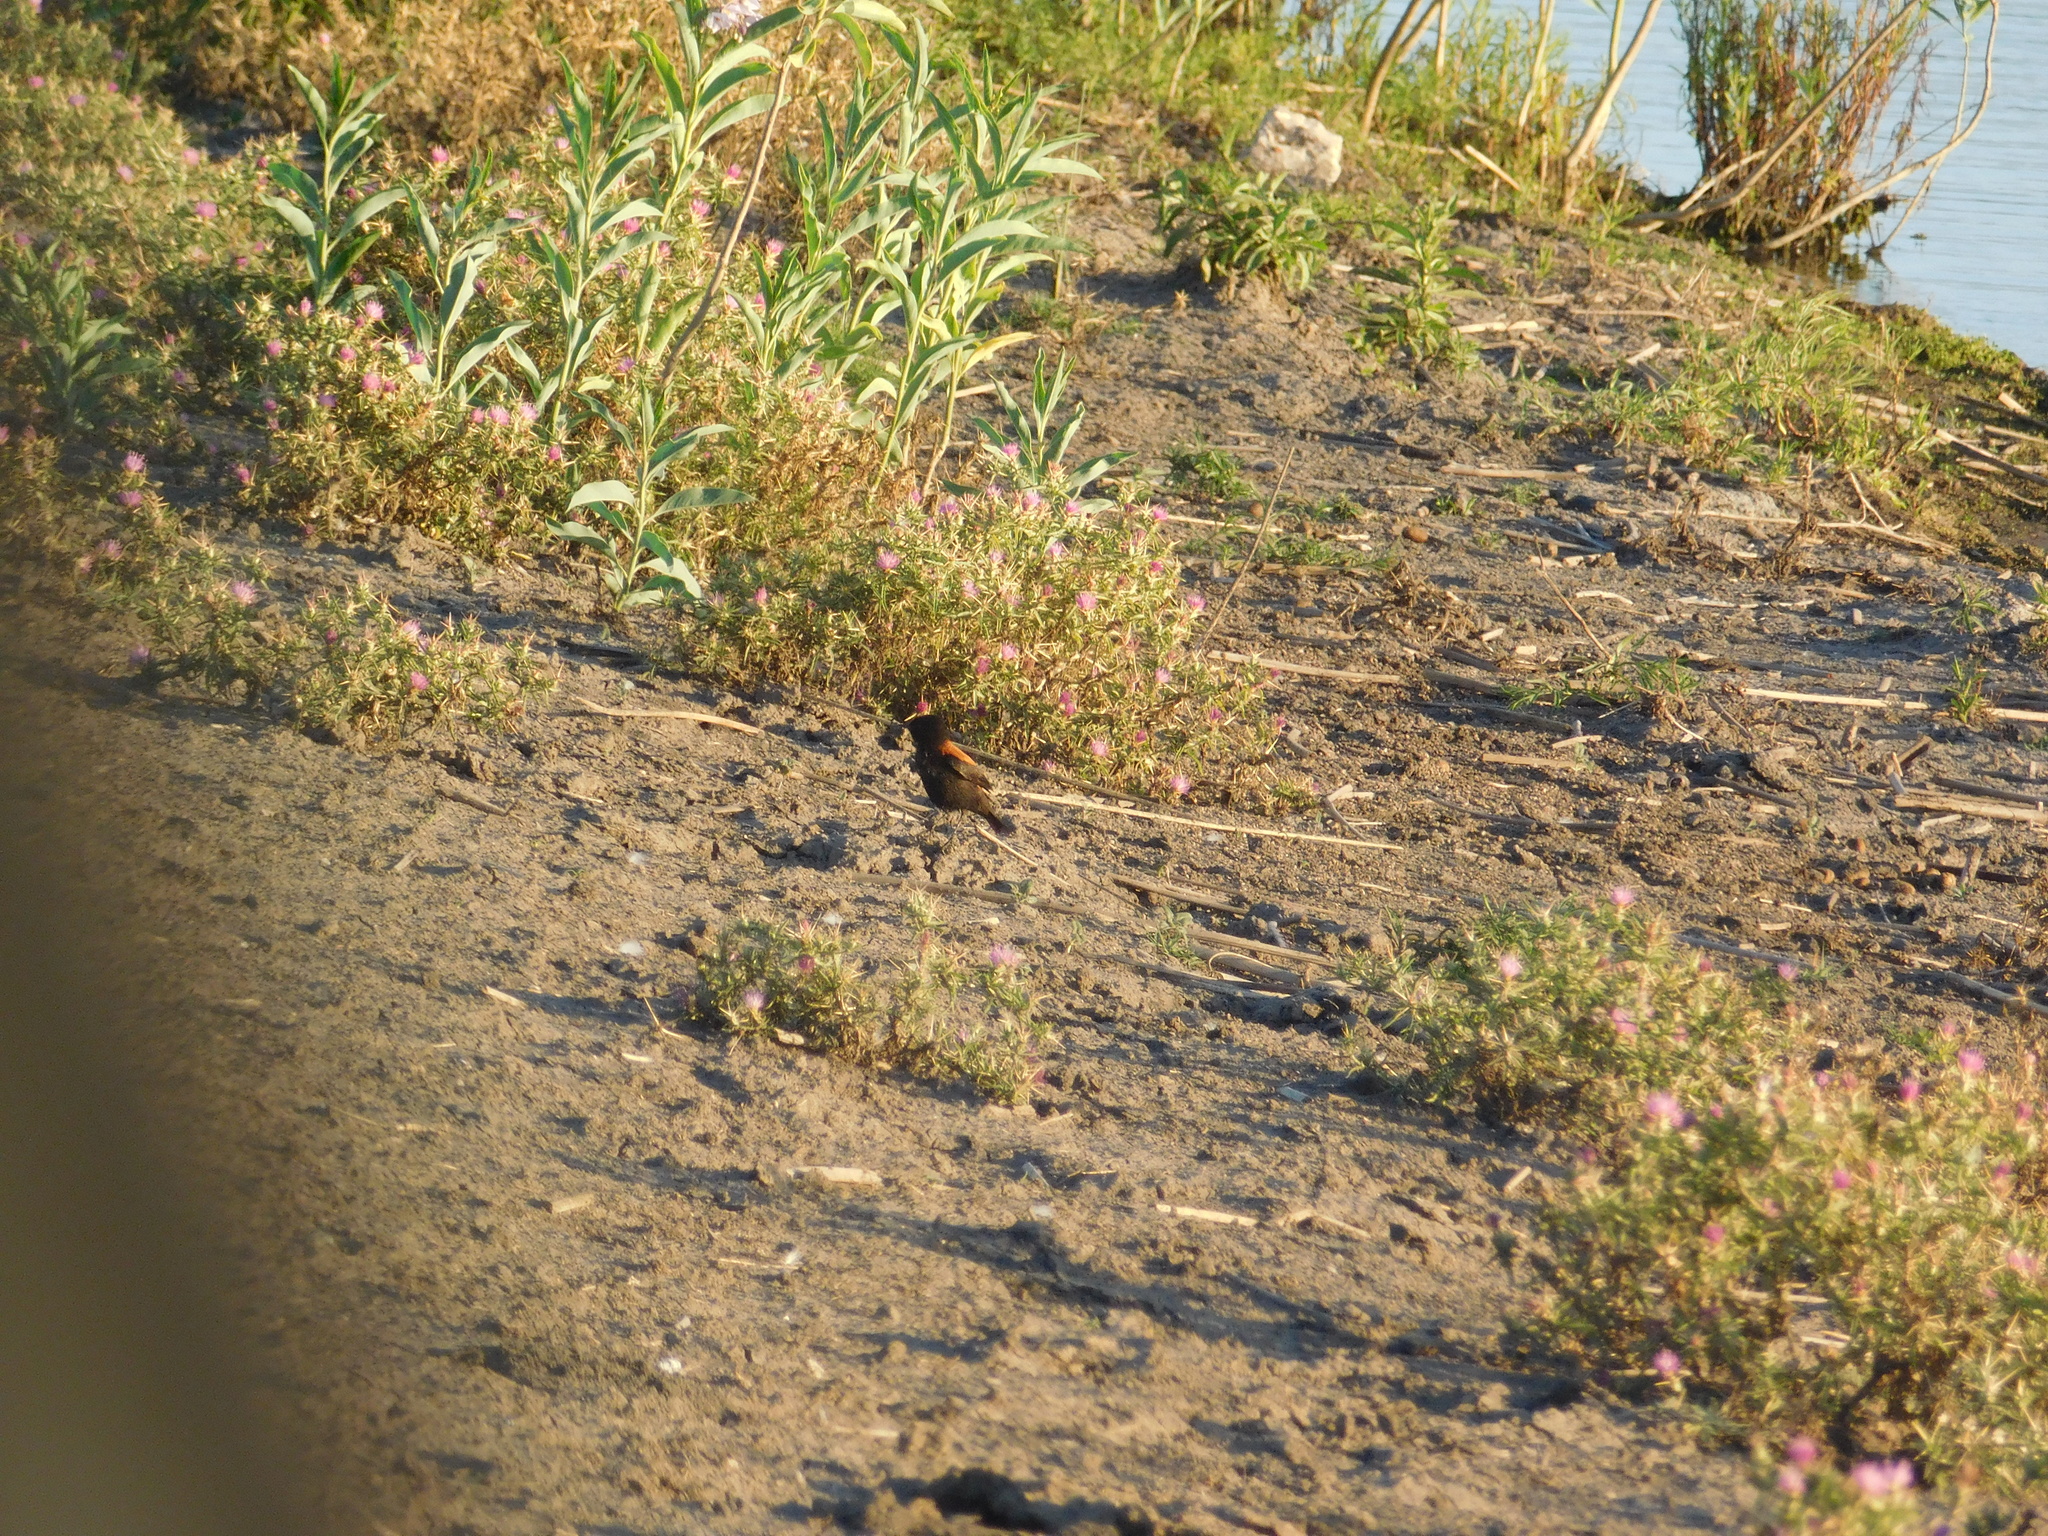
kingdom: Animalia
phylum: Chordata
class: Aves
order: Passeriformes
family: Tyrannidae
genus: Lessonia
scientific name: Lessonia rufa
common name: Austral negrito
